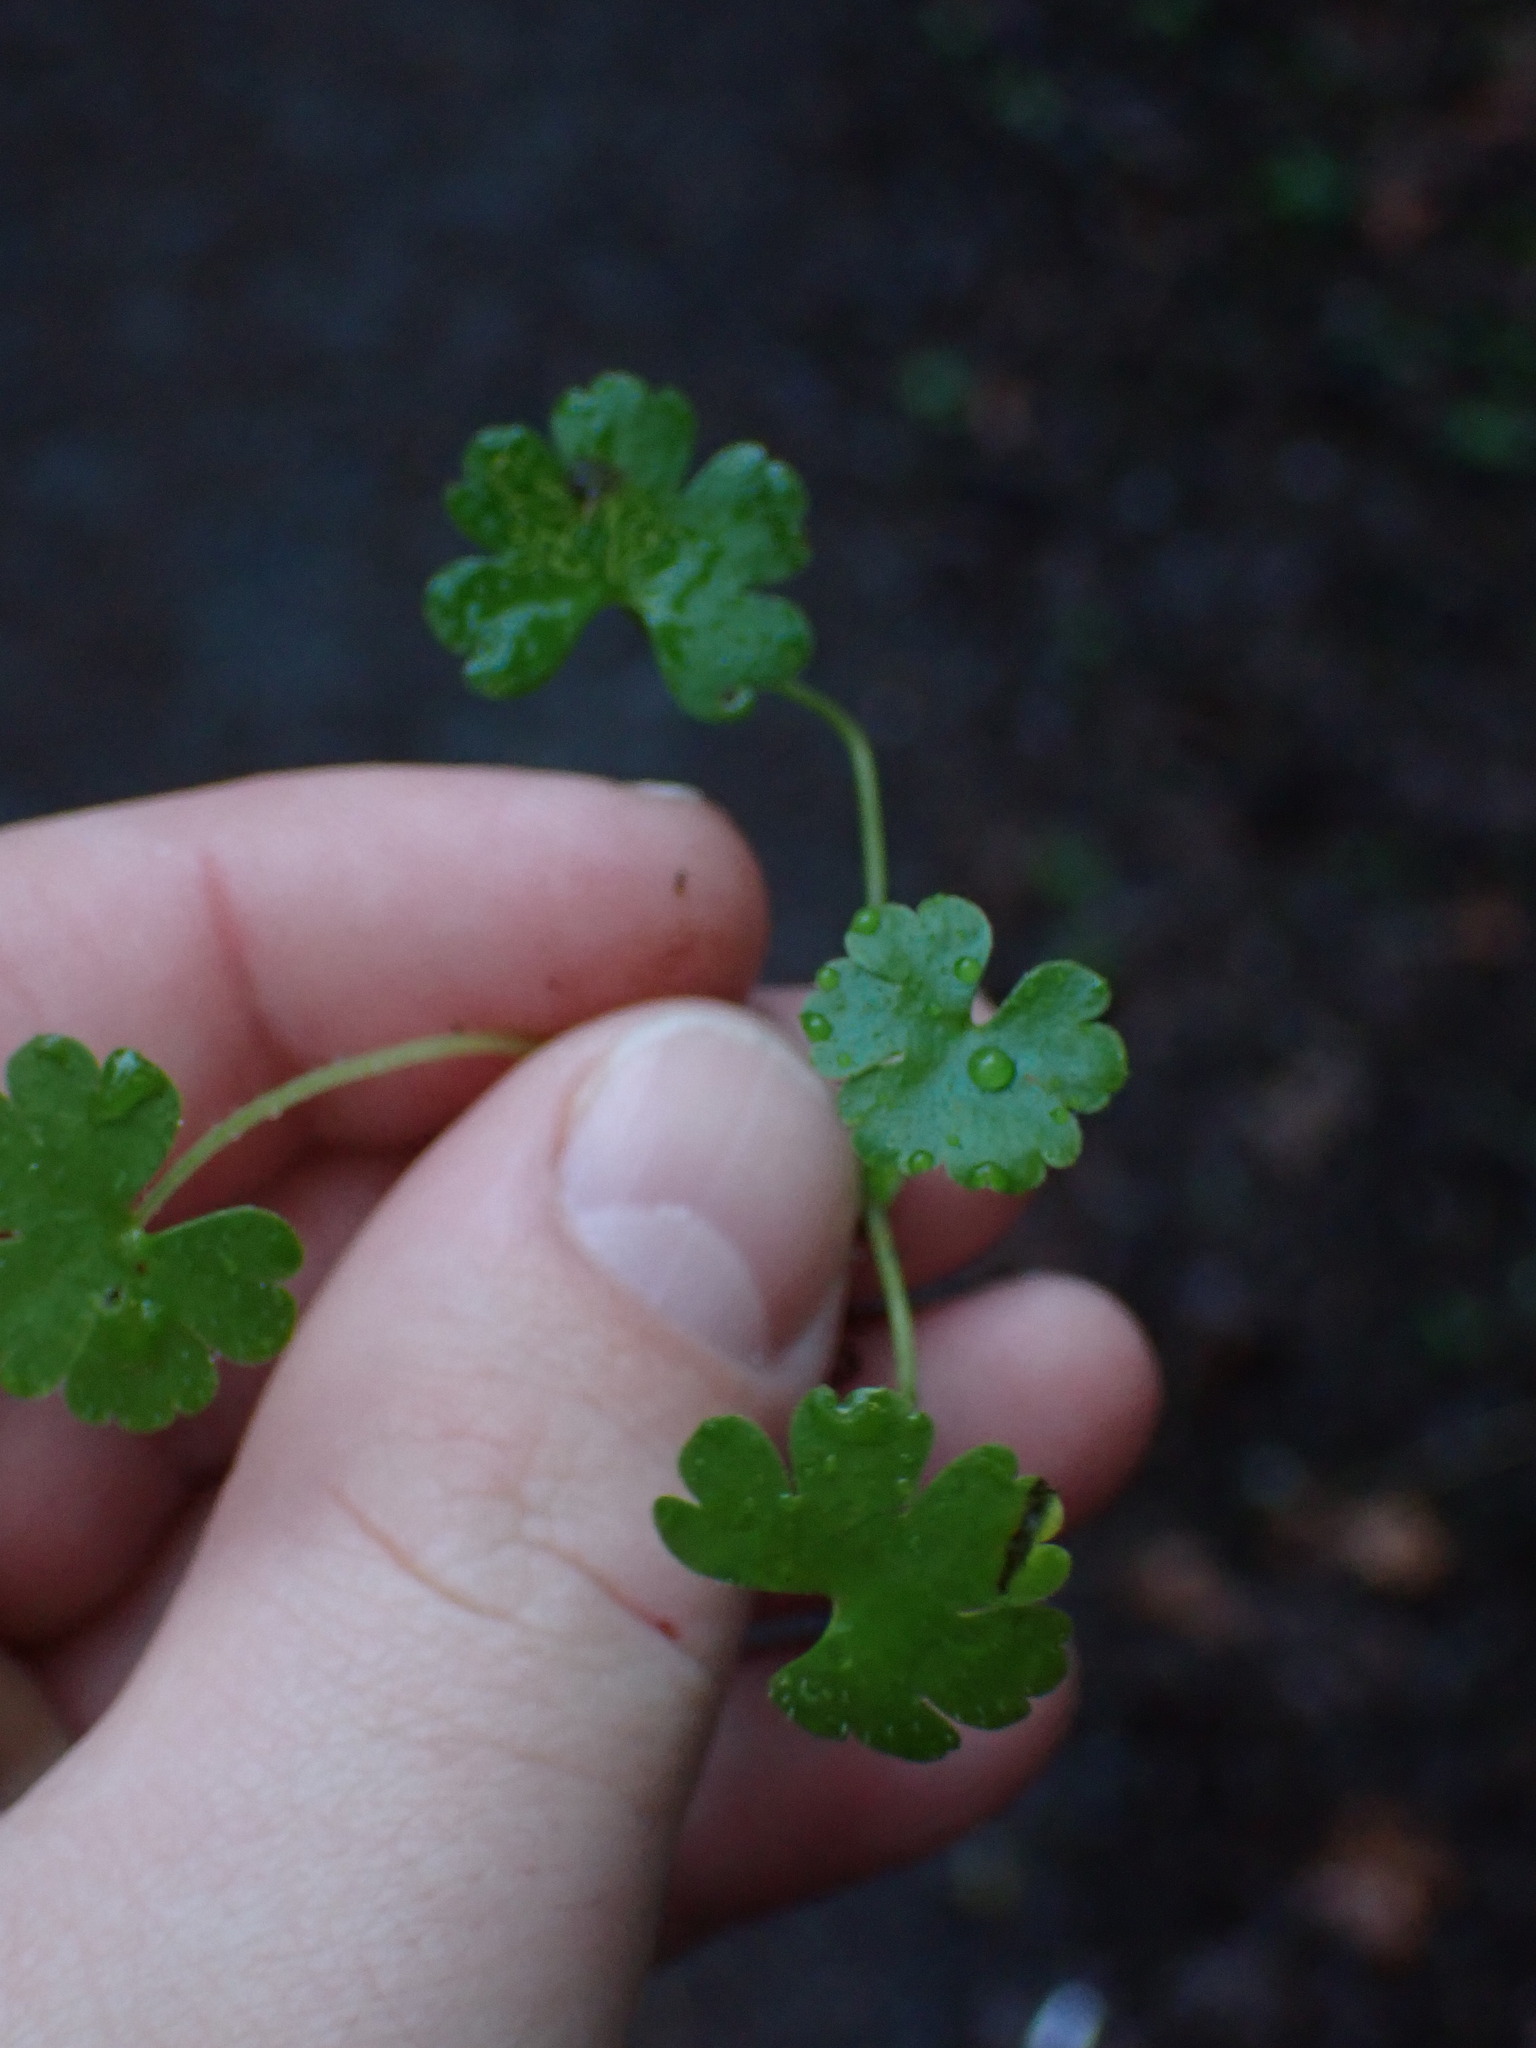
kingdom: Plantae
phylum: Tracheophyta
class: Magnoliopsida
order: Geraniales
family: Geraniaceae
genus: Geranium
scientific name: Geranium lucidum
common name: Shining crane's-bill
